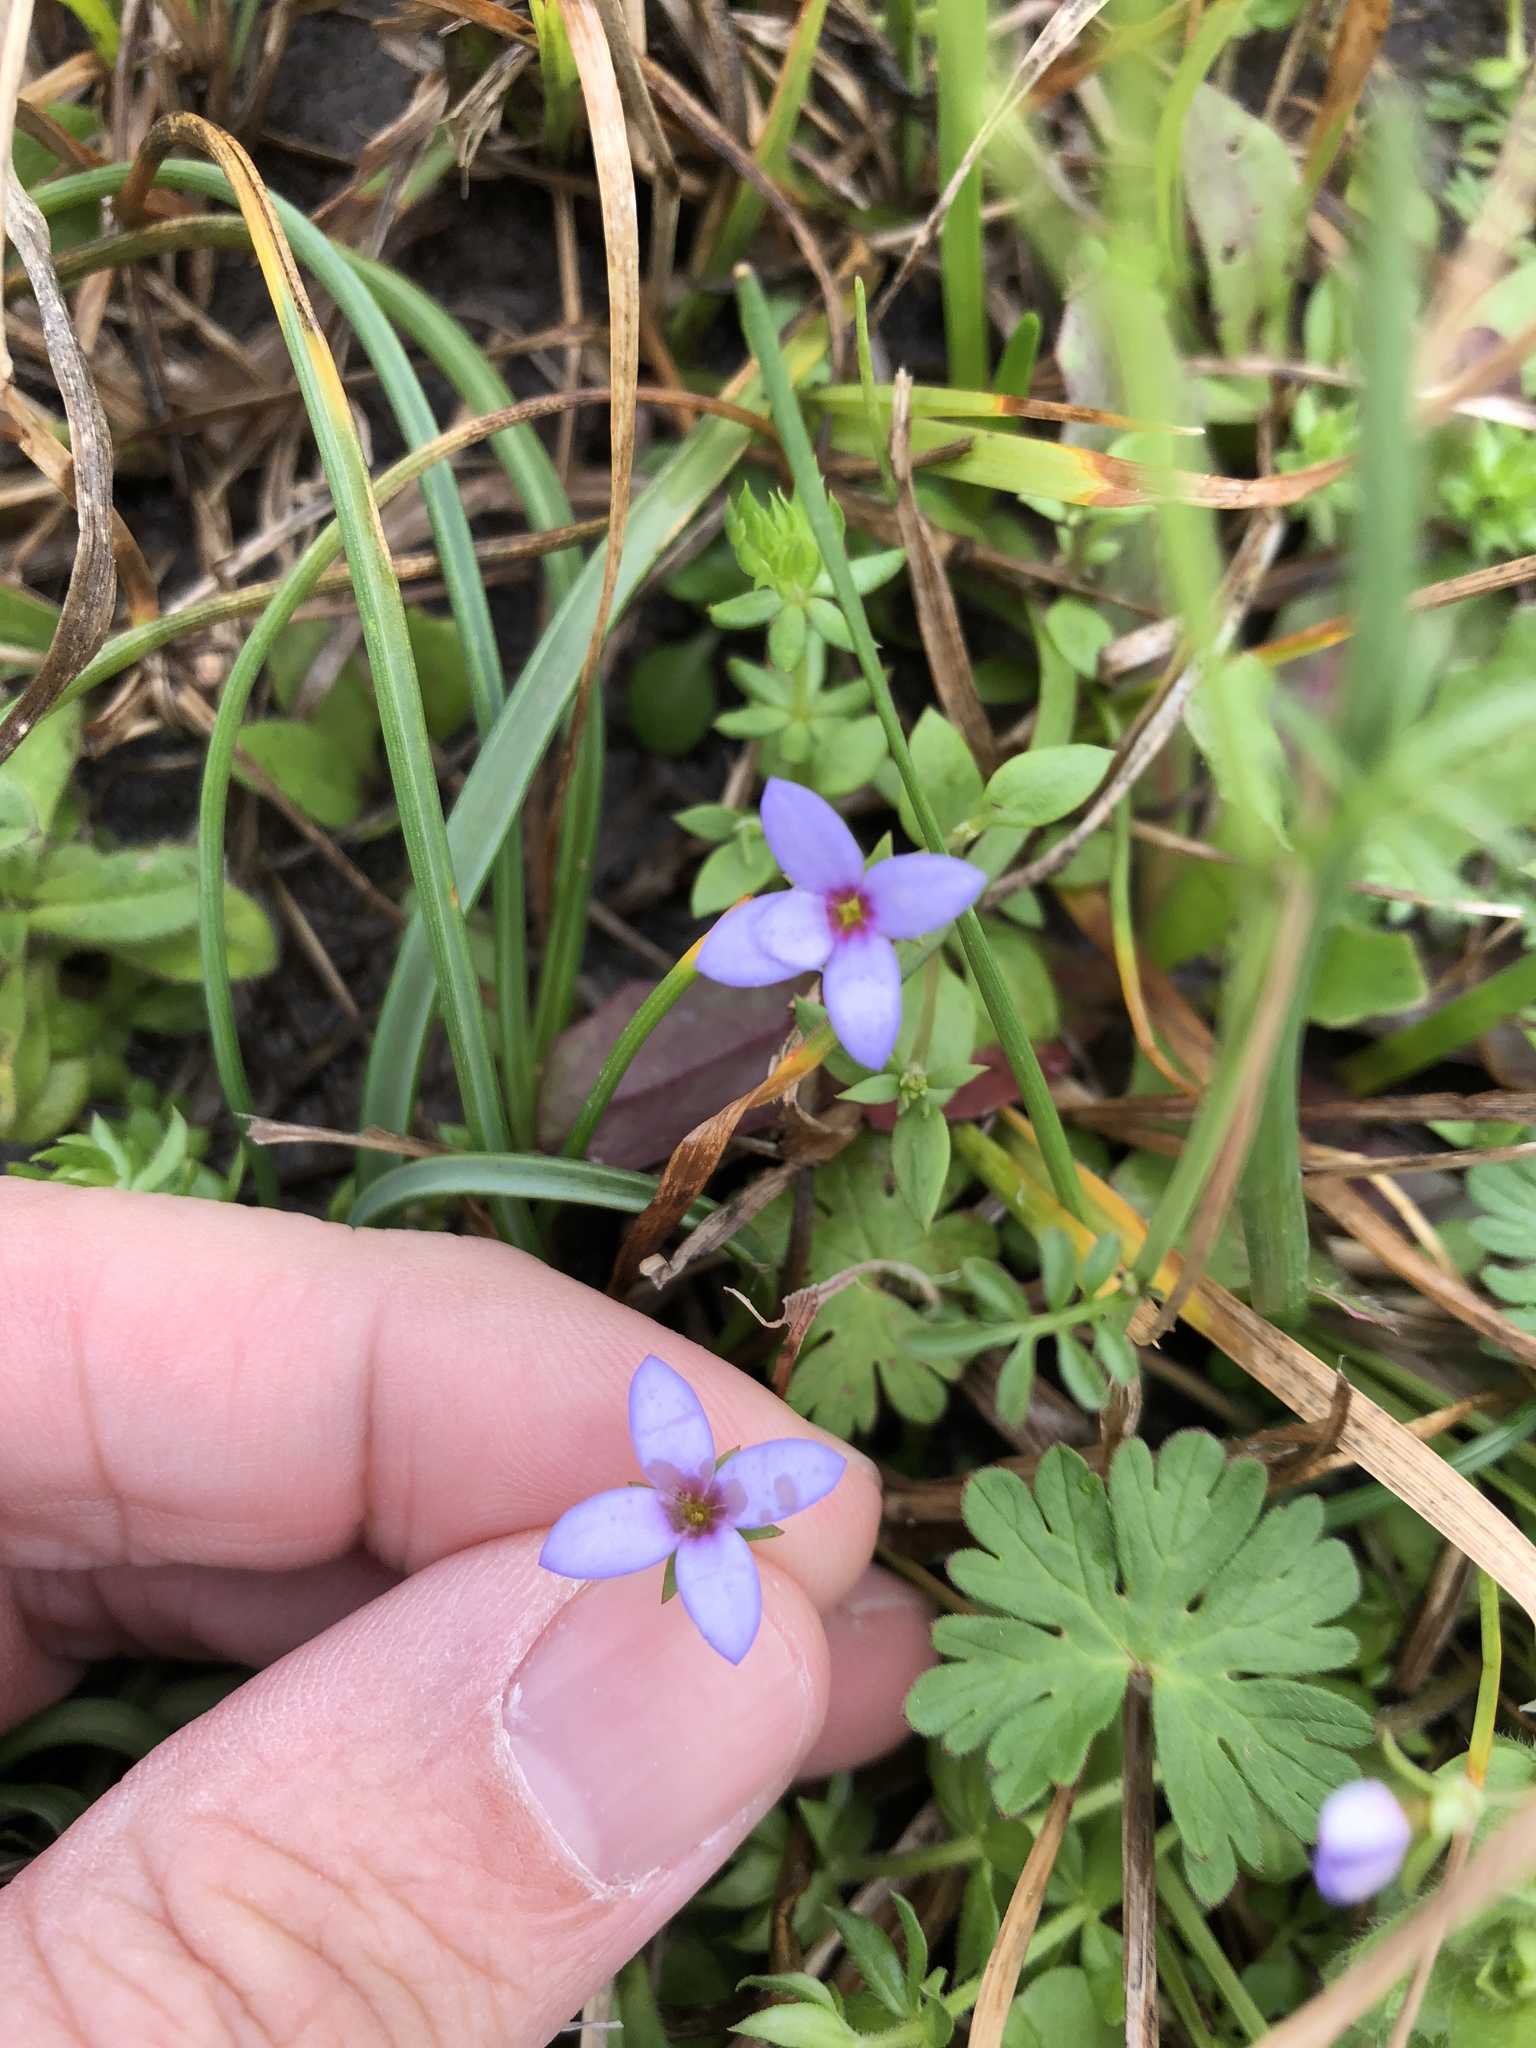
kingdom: Plantae
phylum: Tracheophyta
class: Magnoliopsida
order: Gentianales
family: Rubiaceae
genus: Houstonia
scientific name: Houstonia pusilla
